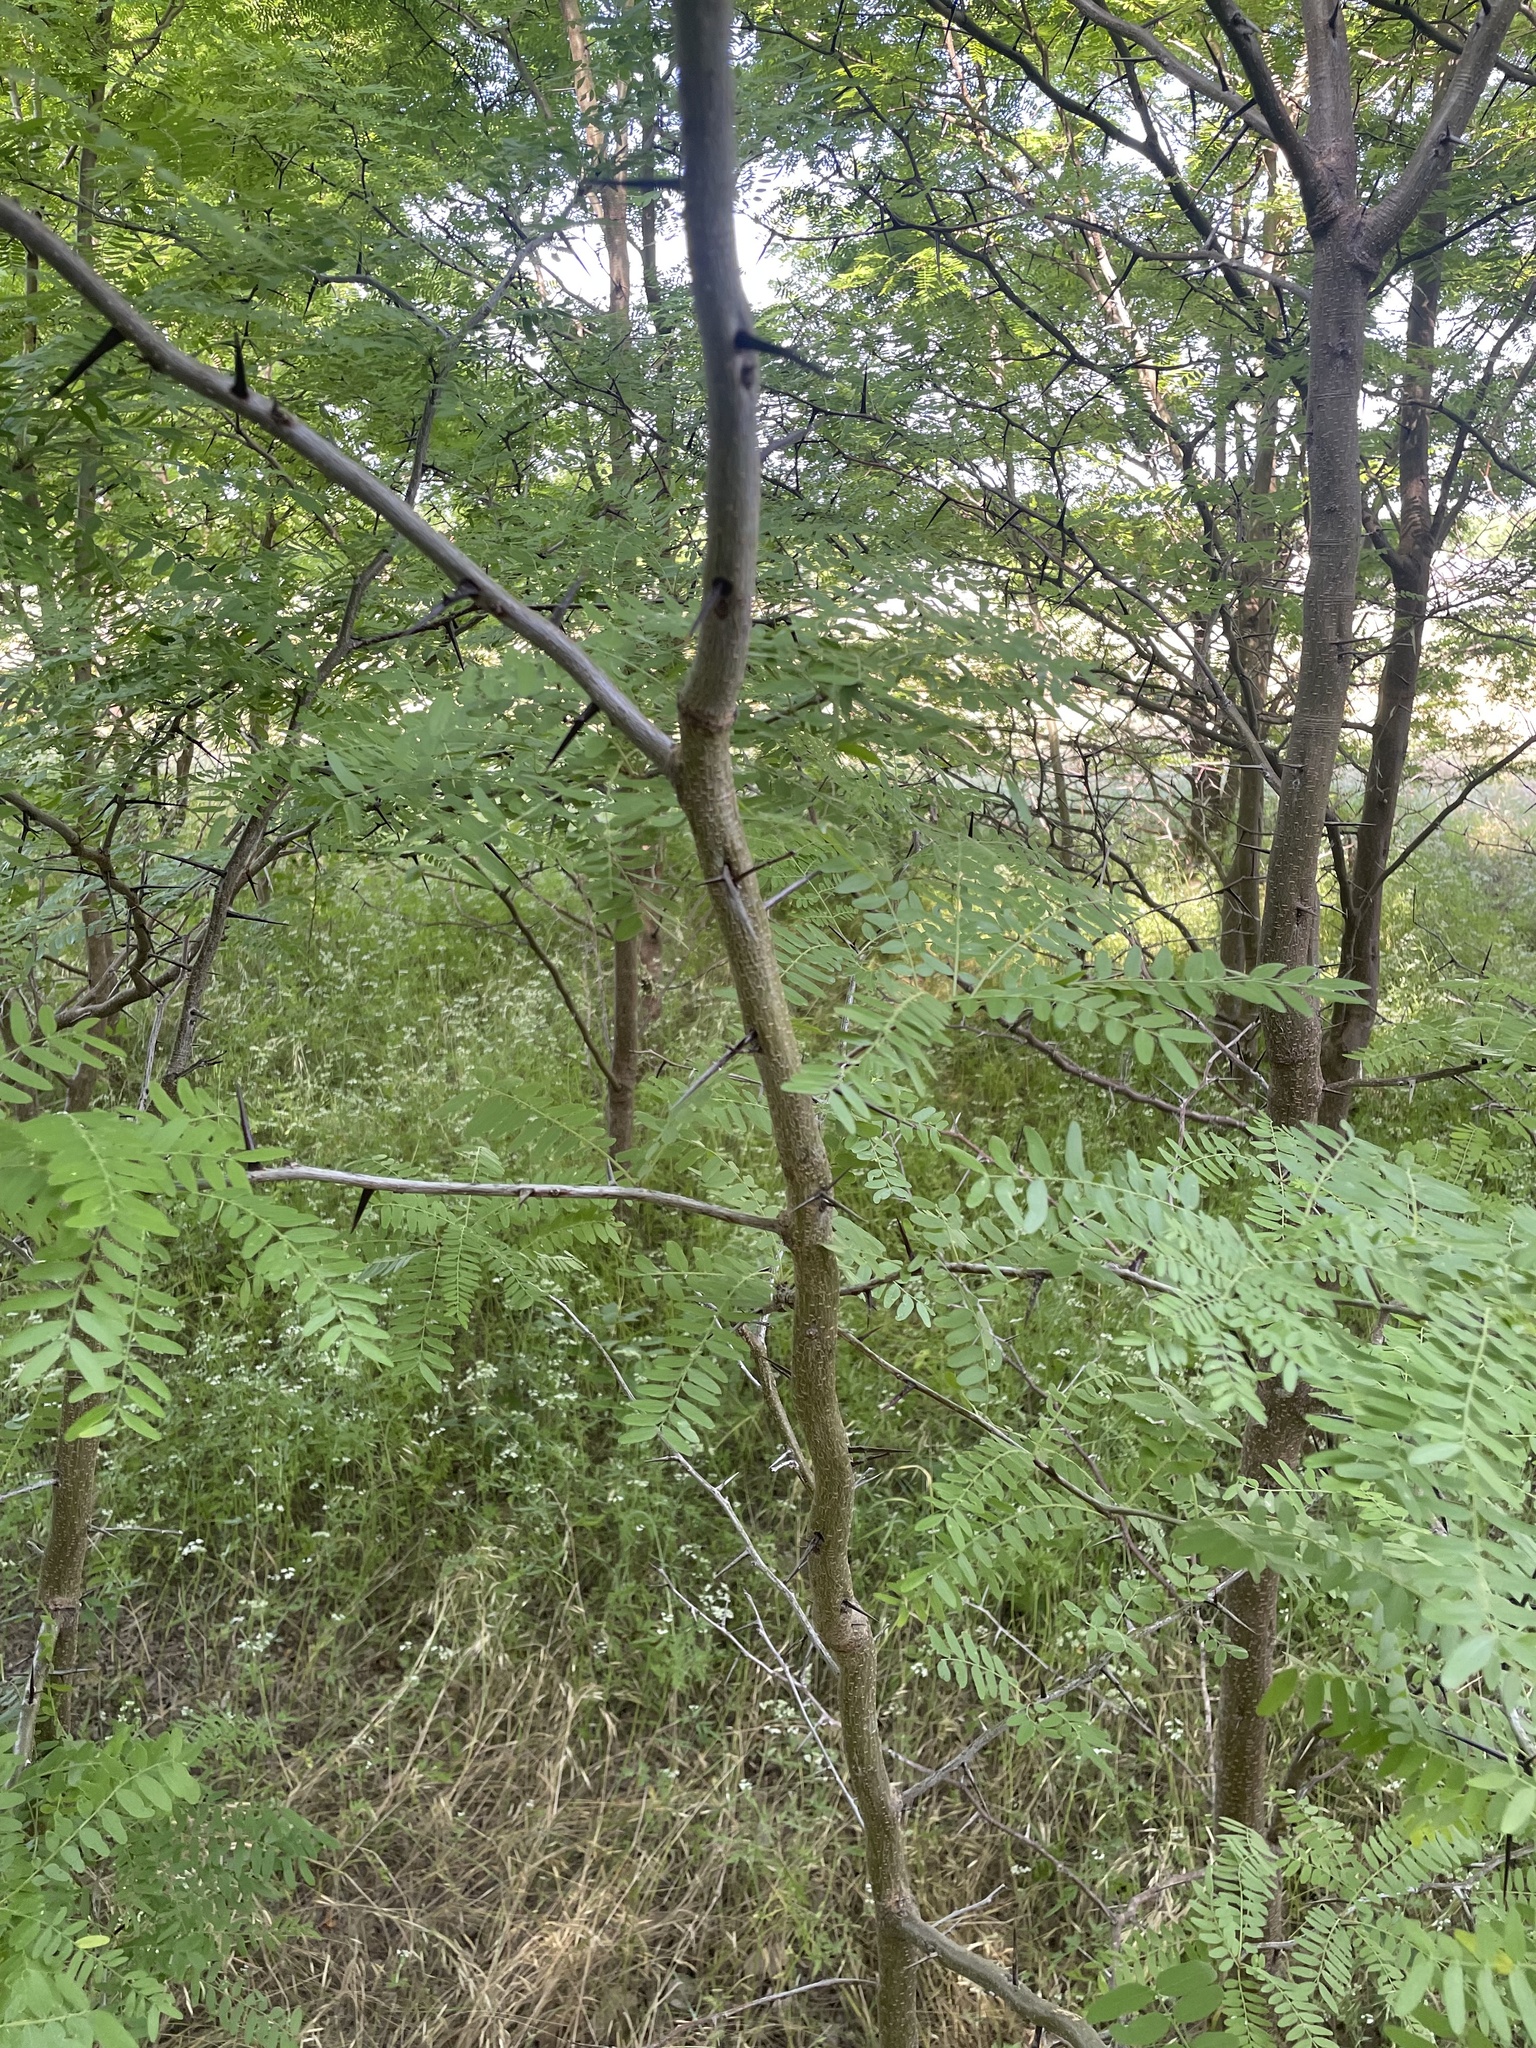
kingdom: Plantae
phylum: Tracheophyta
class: Magnoliopsida
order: Fabales
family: Fabaceae
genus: Gleditsia
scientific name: Gleditsia triacanthos
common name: Common honeylocust
